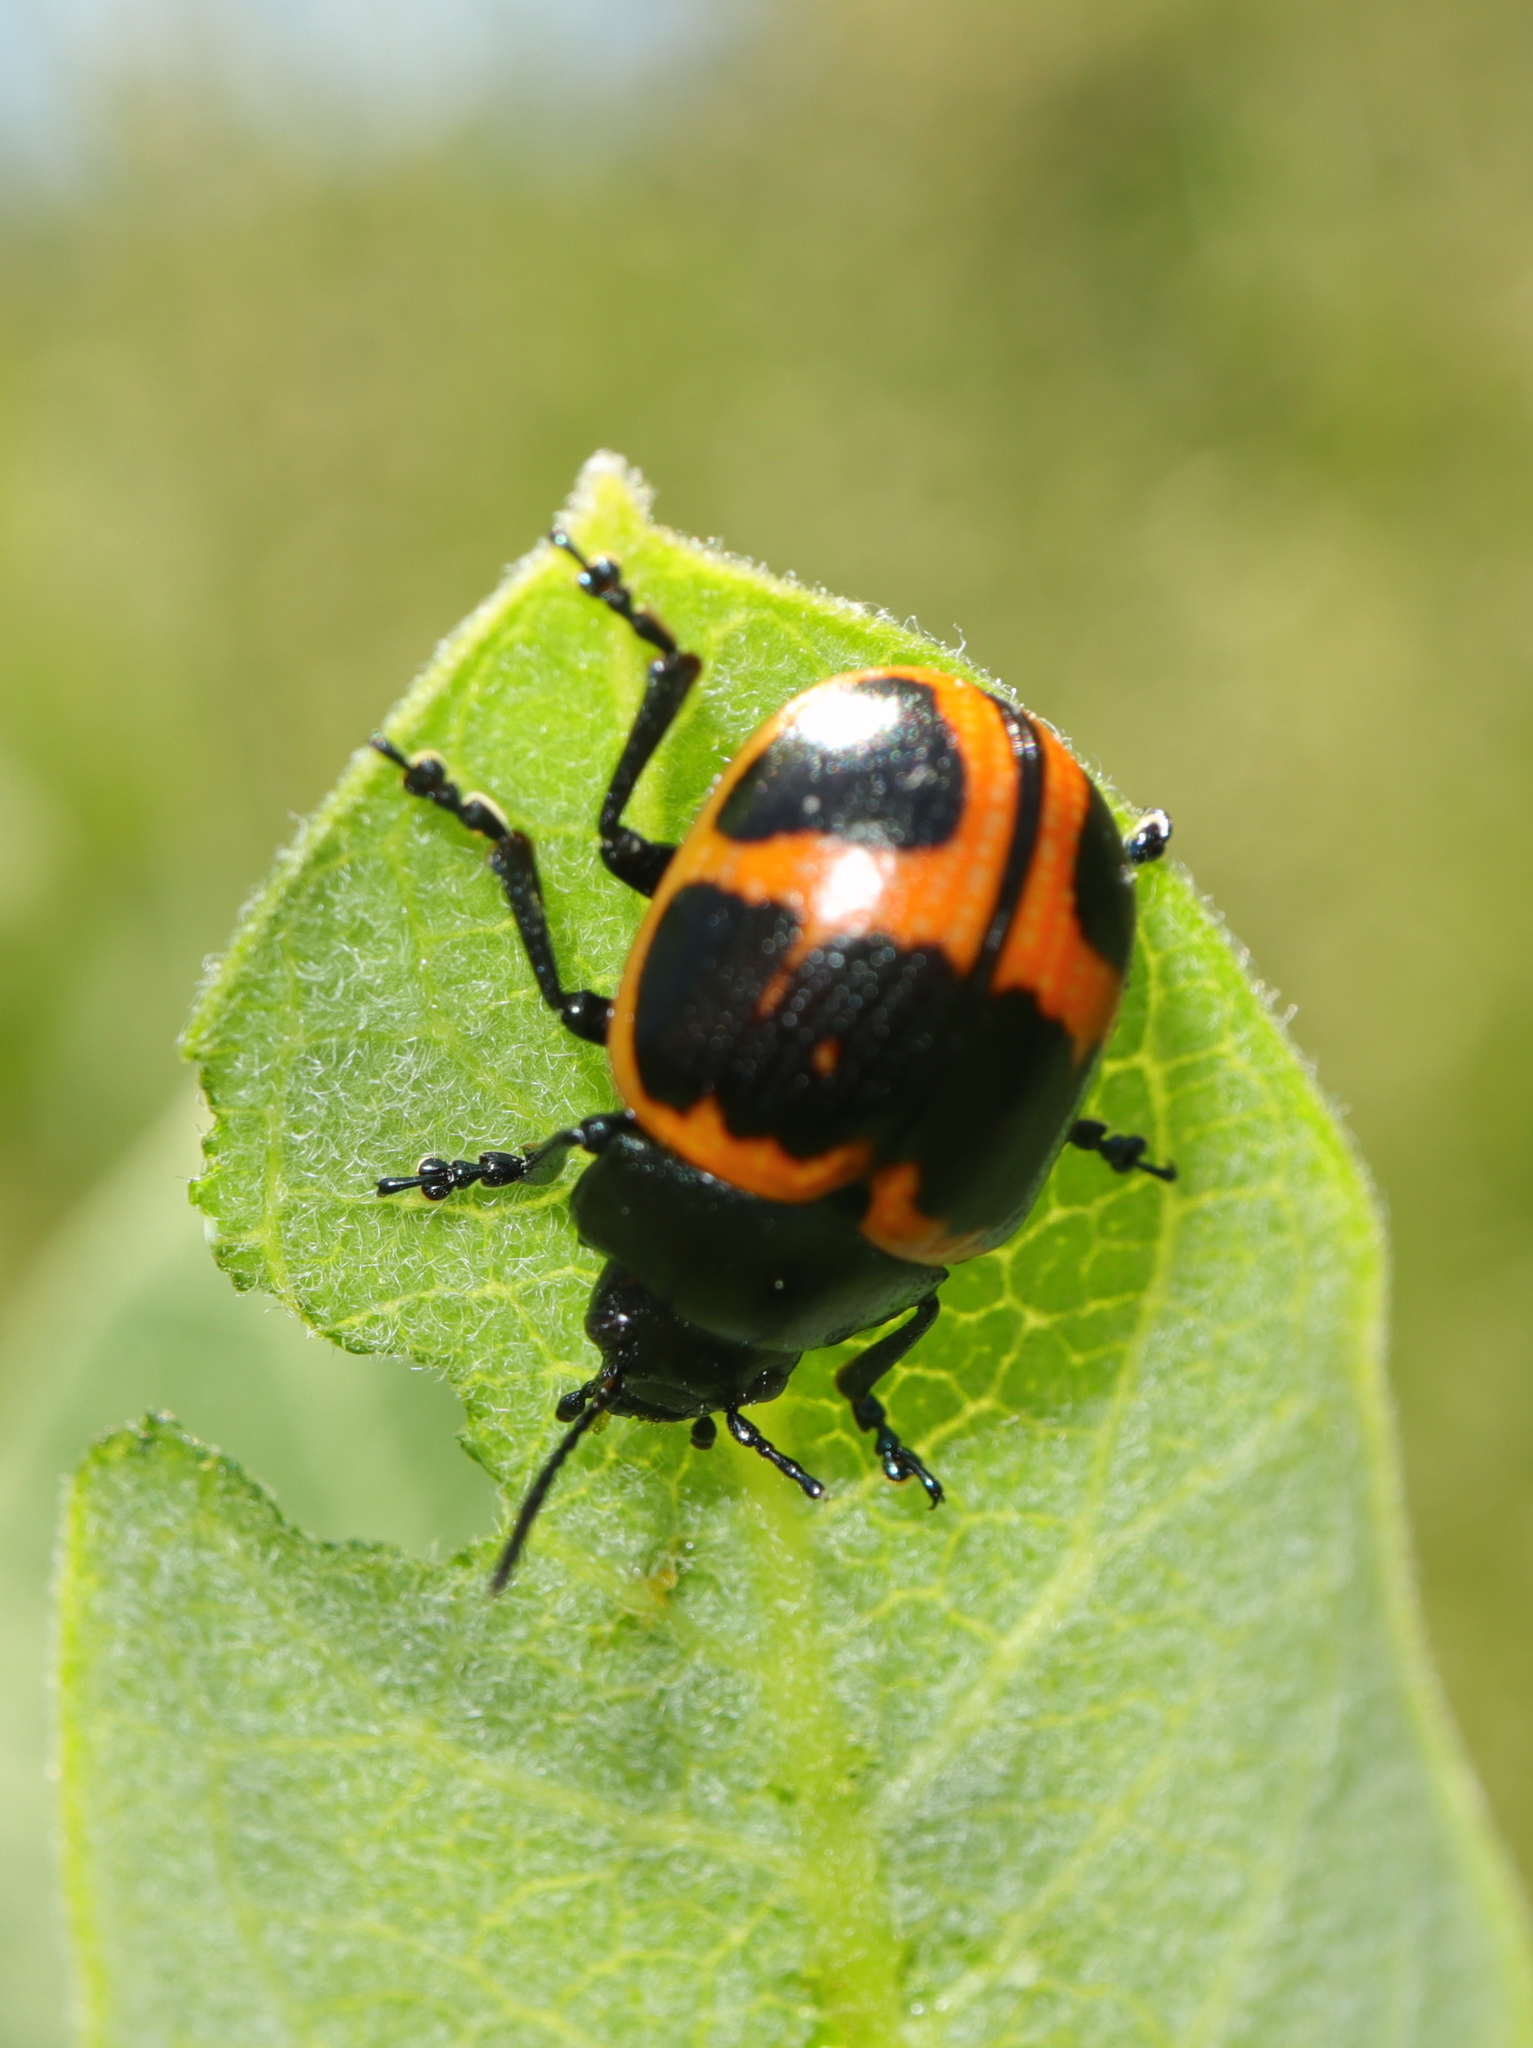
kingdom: Animalia
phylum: Arthropoda
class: Insecta
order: Coleoptera
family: Chrysomelidae
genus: Labidomera
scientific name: Labidomera clivicollis
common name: Swamp milkweed leaf beetle
